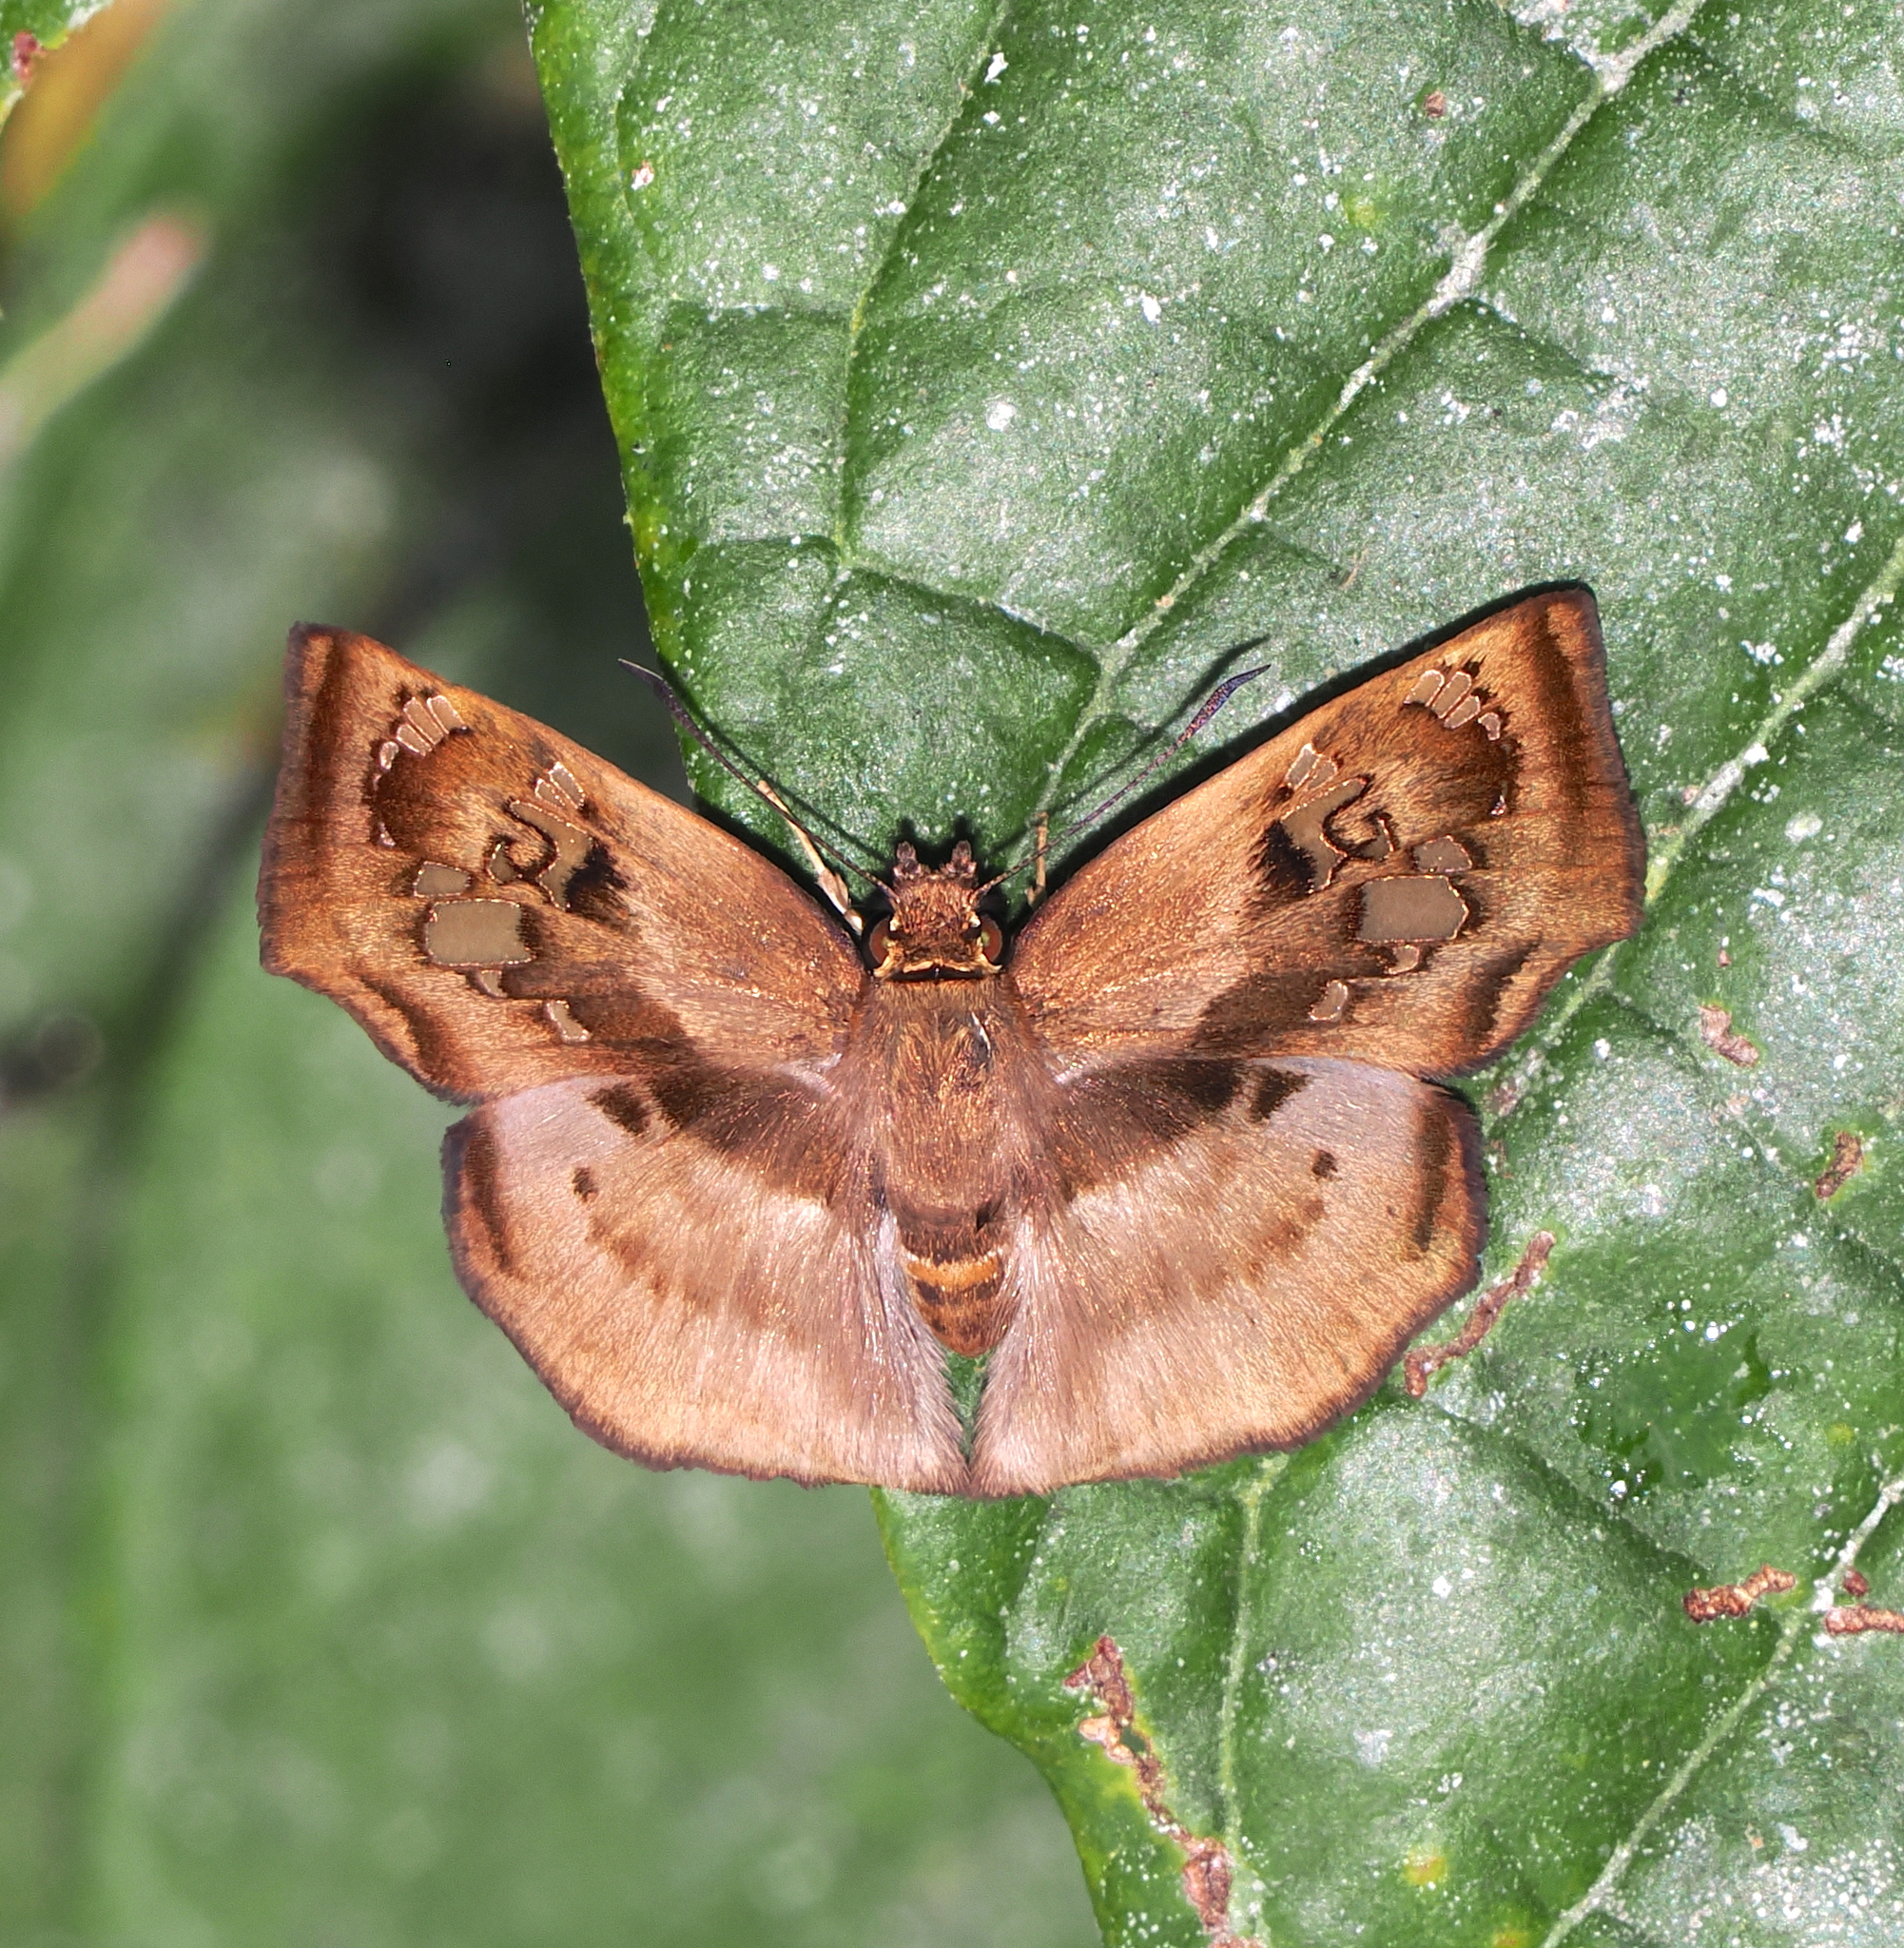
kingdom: Animalia
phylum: Arthropoda
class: Insecta
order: Lepidoptera
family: Hesperiidae
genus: Quadrus
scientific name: Quadrus truncata
